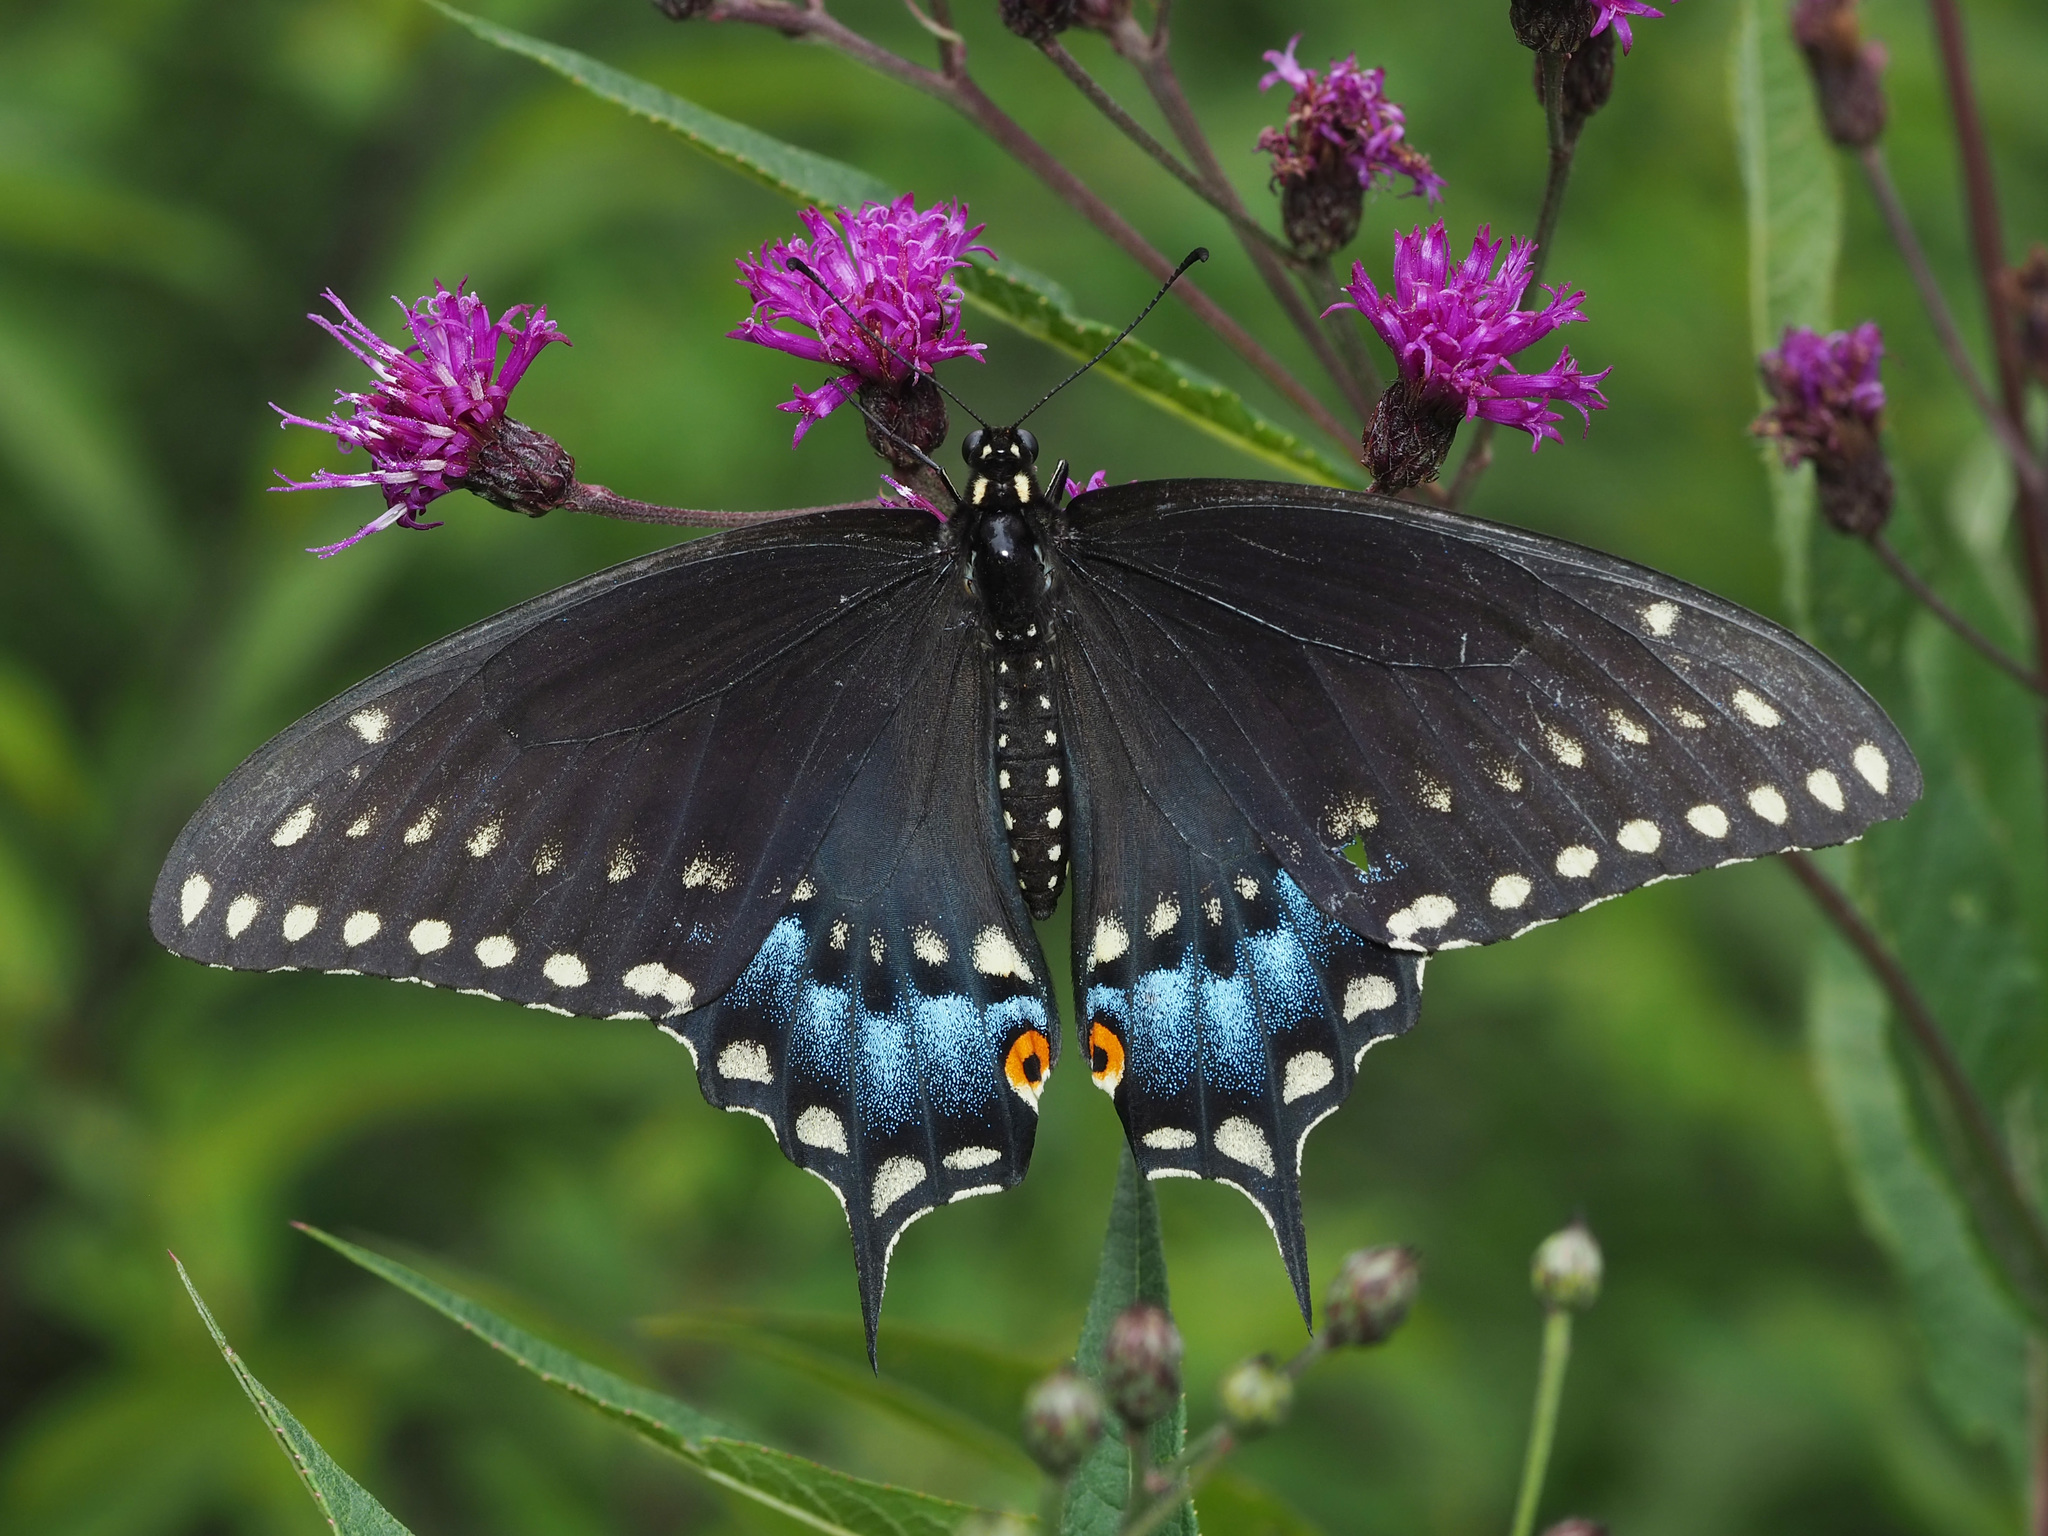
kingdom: Animalia
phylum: Arthropoda
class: Insecta
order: Lepidoptera
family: Papilionidae
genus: Papilio
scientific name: Papilio polyxenes
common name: Black swallowtail
